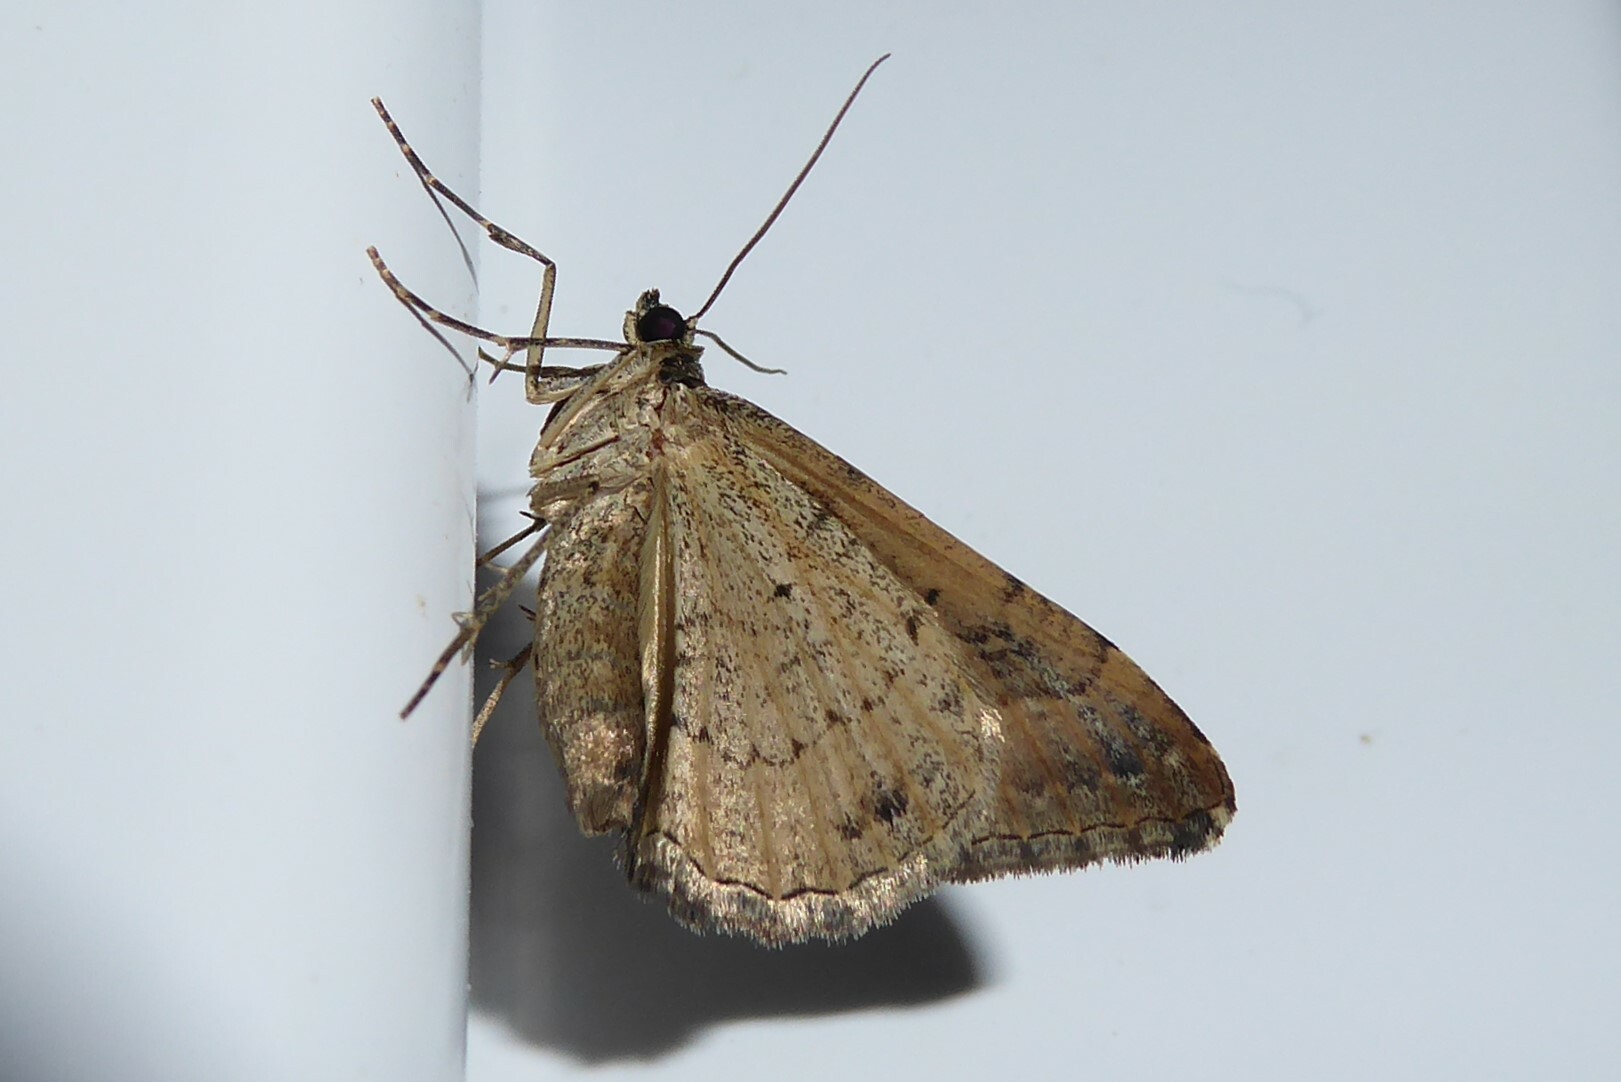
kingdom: Animalia
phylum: Arthropoda
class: Insecta
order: Lepidoptera
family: Geometridae
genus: Hydriomena
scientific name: Hydriomena deltoidata
